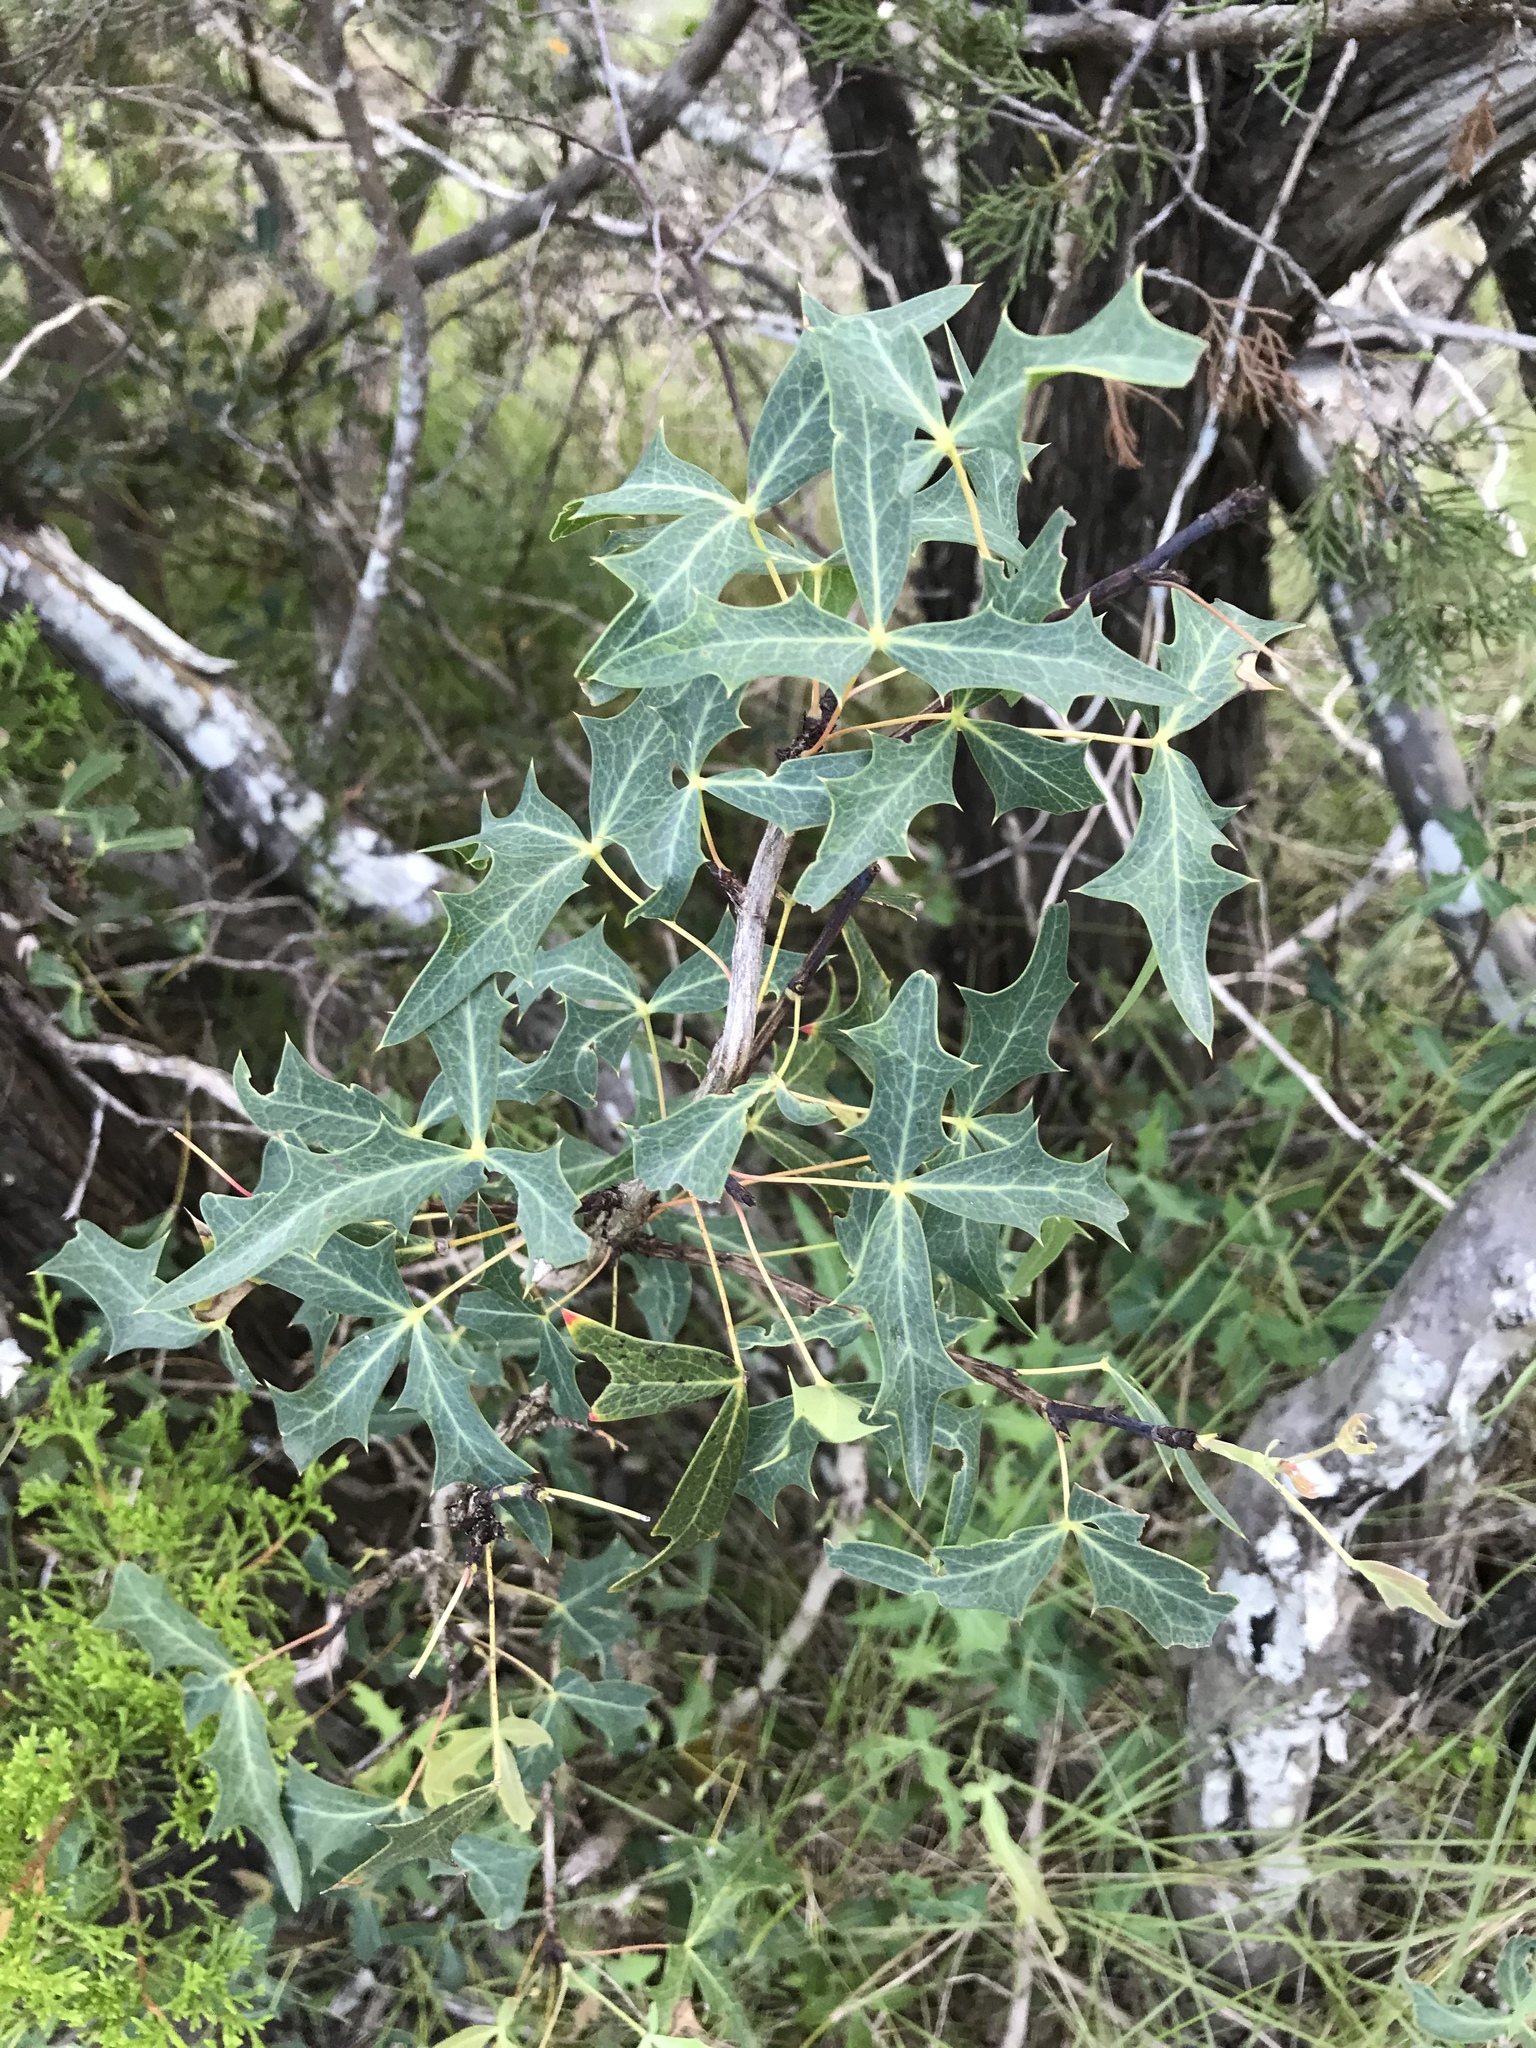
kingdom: Plantae
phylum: Tracheophyta
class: Magnoliopsida
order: Ranunculales
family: Berberidaceae
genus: Alloberberis
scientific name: Alloberberis trifoliolata
